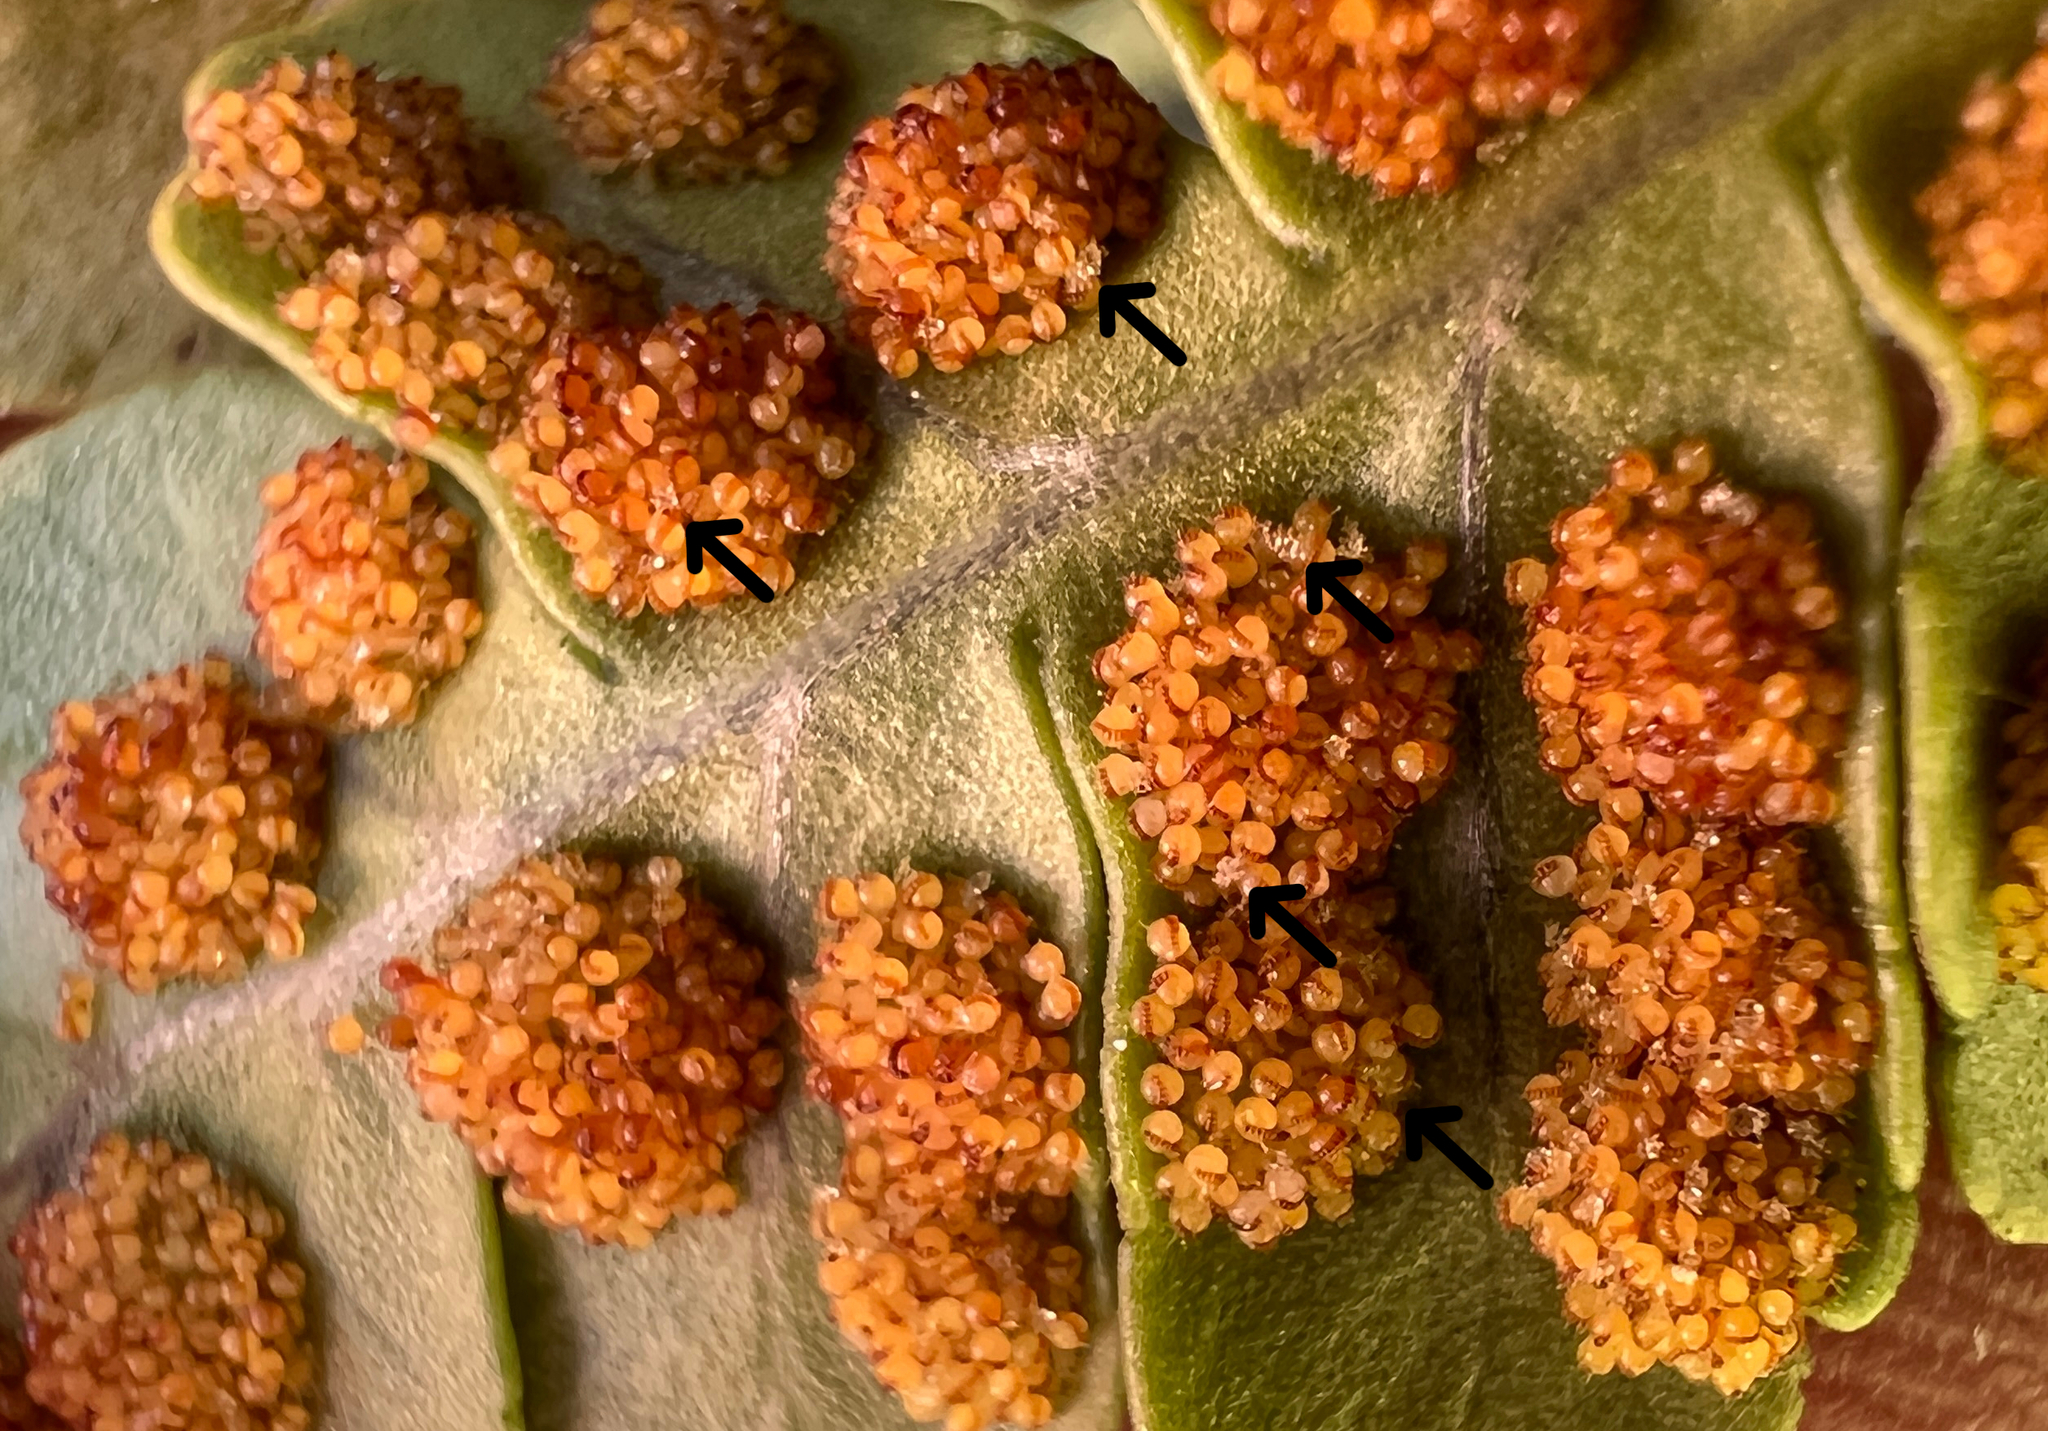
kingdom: Plantae
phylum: Tracheophyta
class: Polypodiopsida
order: Polypodiales
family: Polypodiaceae
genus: Polypodium
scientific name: Polypodium amorphum
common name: Pacific polypody
